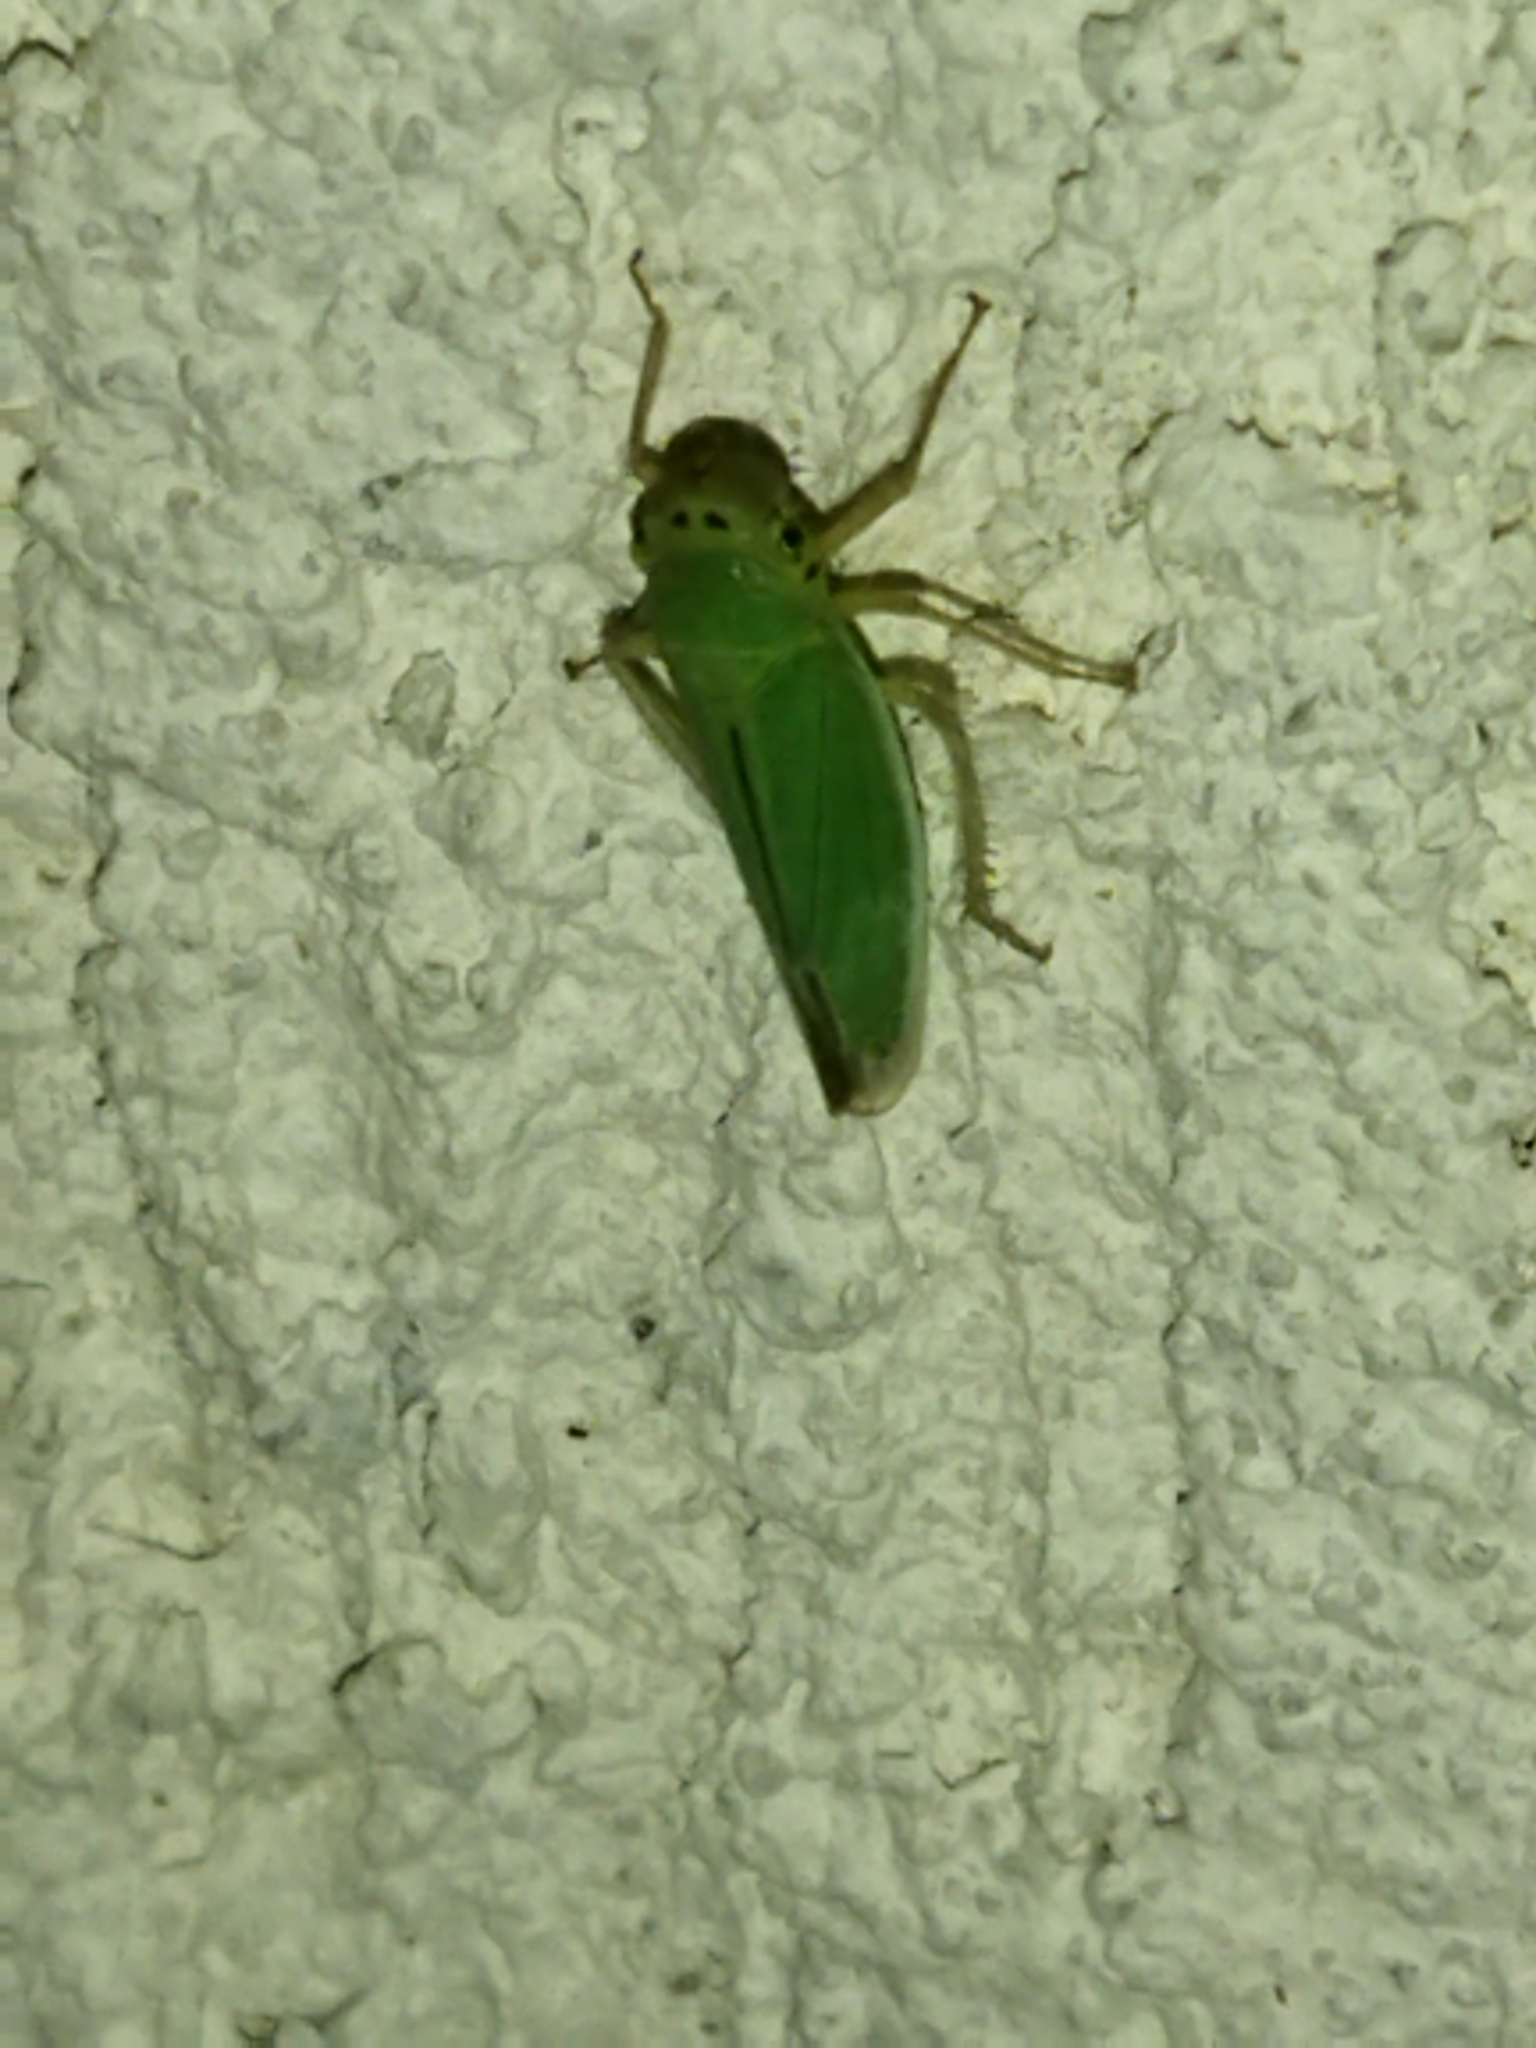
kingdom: Animalia
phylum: Arthropoda
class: Insecta
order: Hemiptera
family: Cicadellidae
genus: Cicadella
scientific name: Cicadella viridis
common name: Leafhopper
